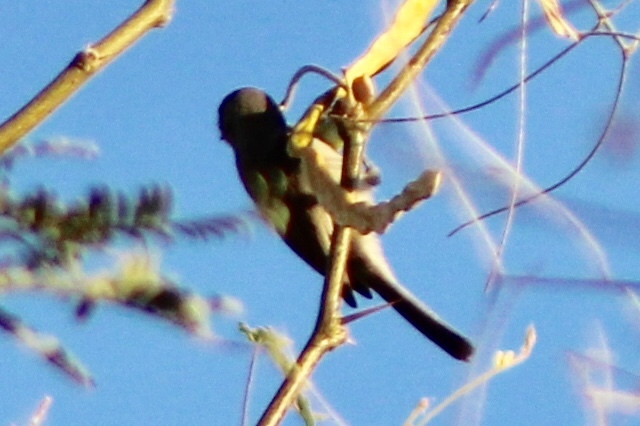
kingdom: Animalia
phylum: Chordata
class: Aves
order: Passeriformes
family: Remizidae
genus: Auriparus
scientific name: Auriparus flaviceps
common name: Verdin
